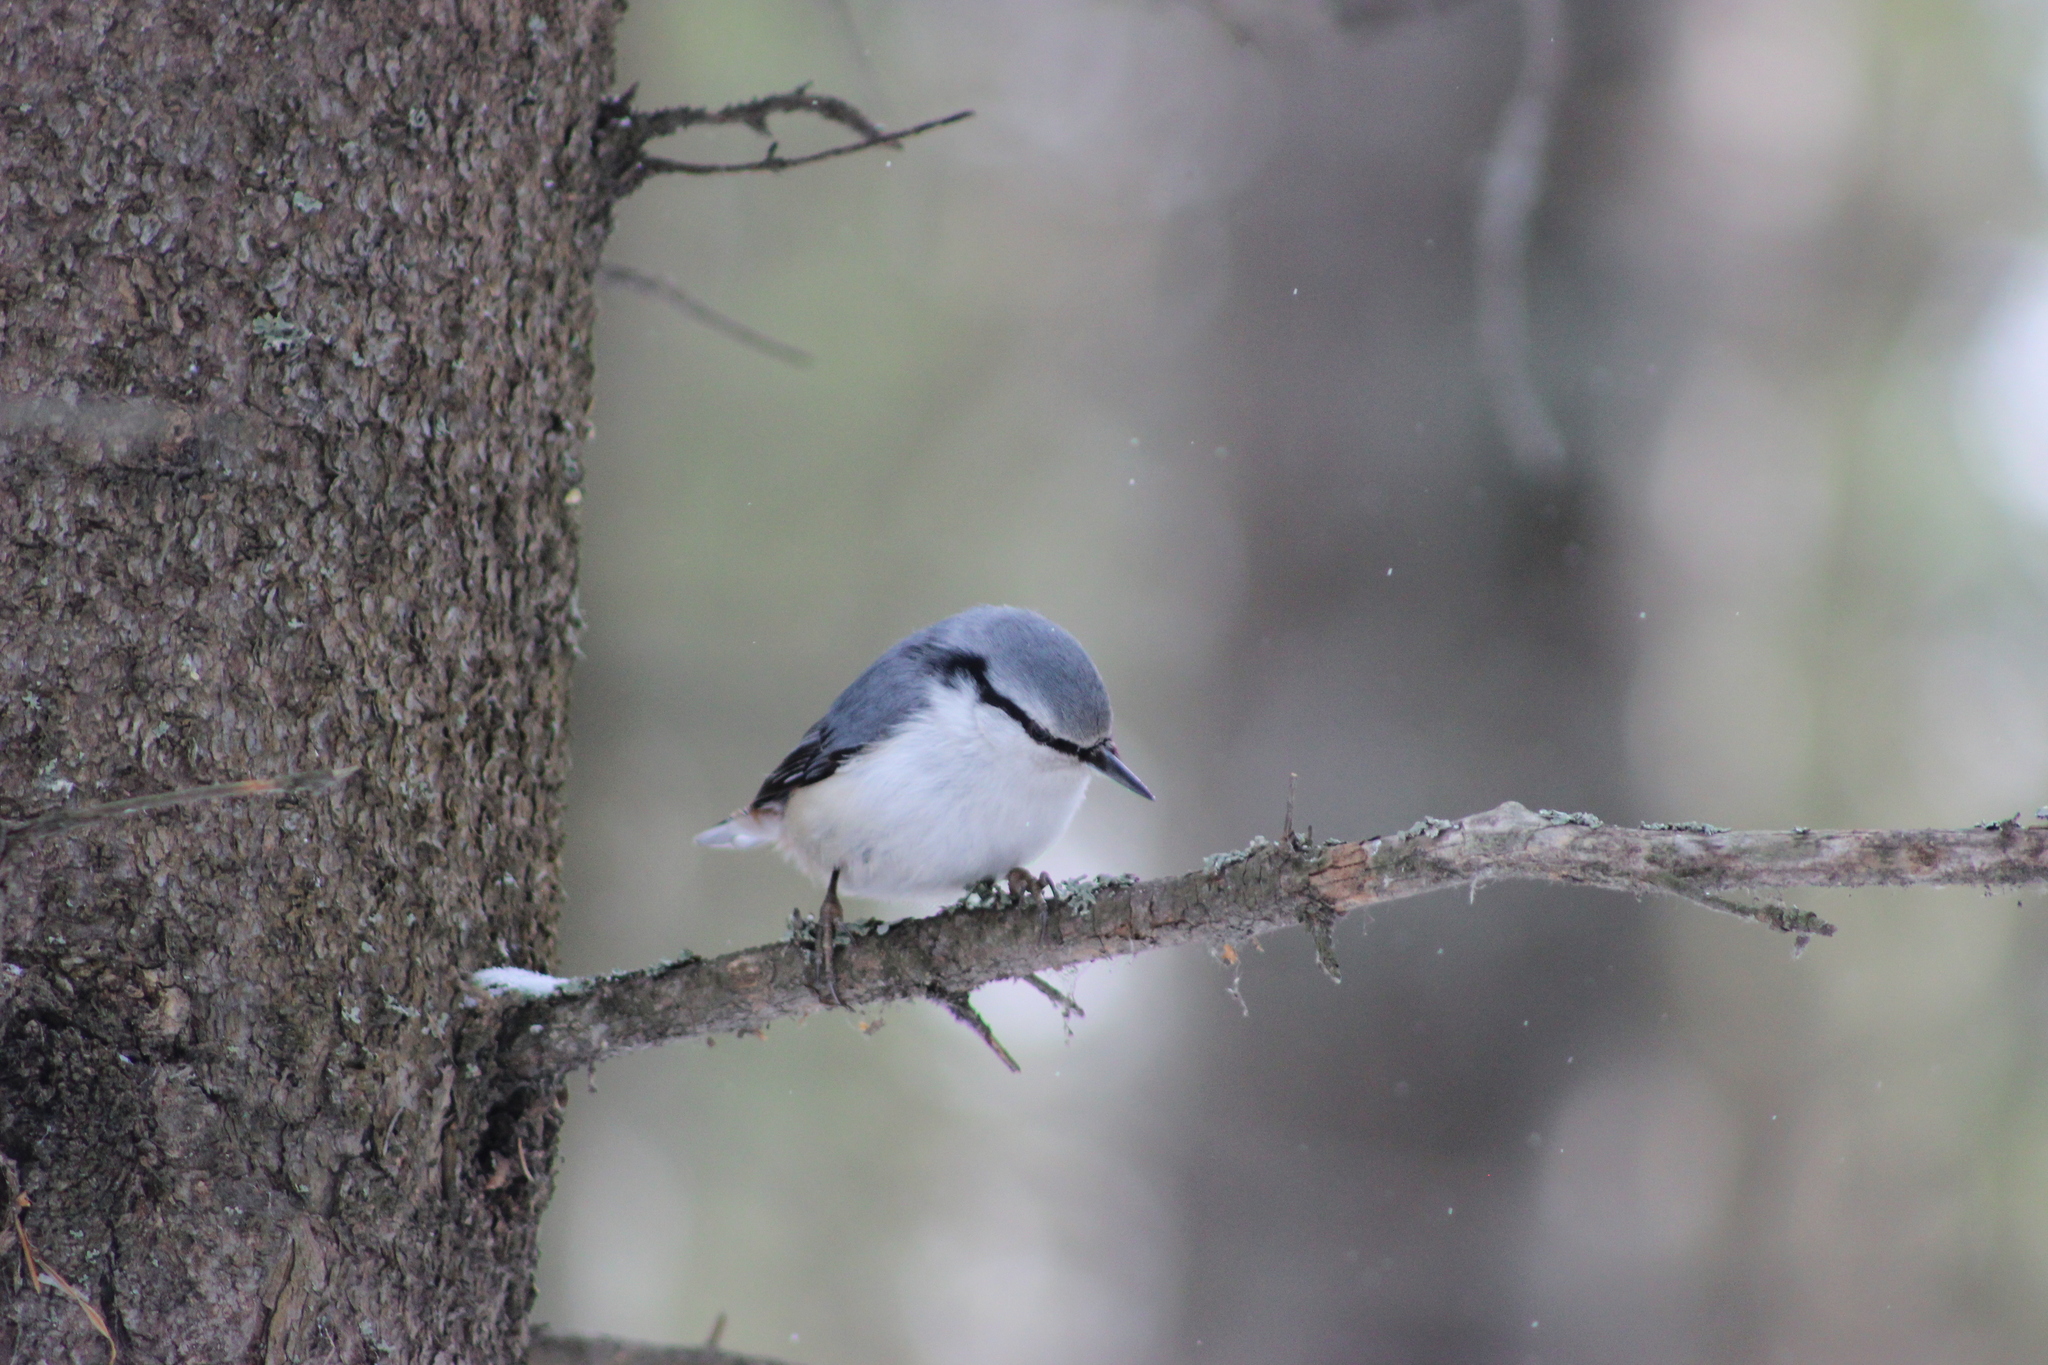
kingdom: Animalia
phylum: Chordata
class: Aves
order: Passeriformes
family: Sittidae
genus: Sitta
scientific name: Sitta europaea
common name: Eurasian nuthatch
